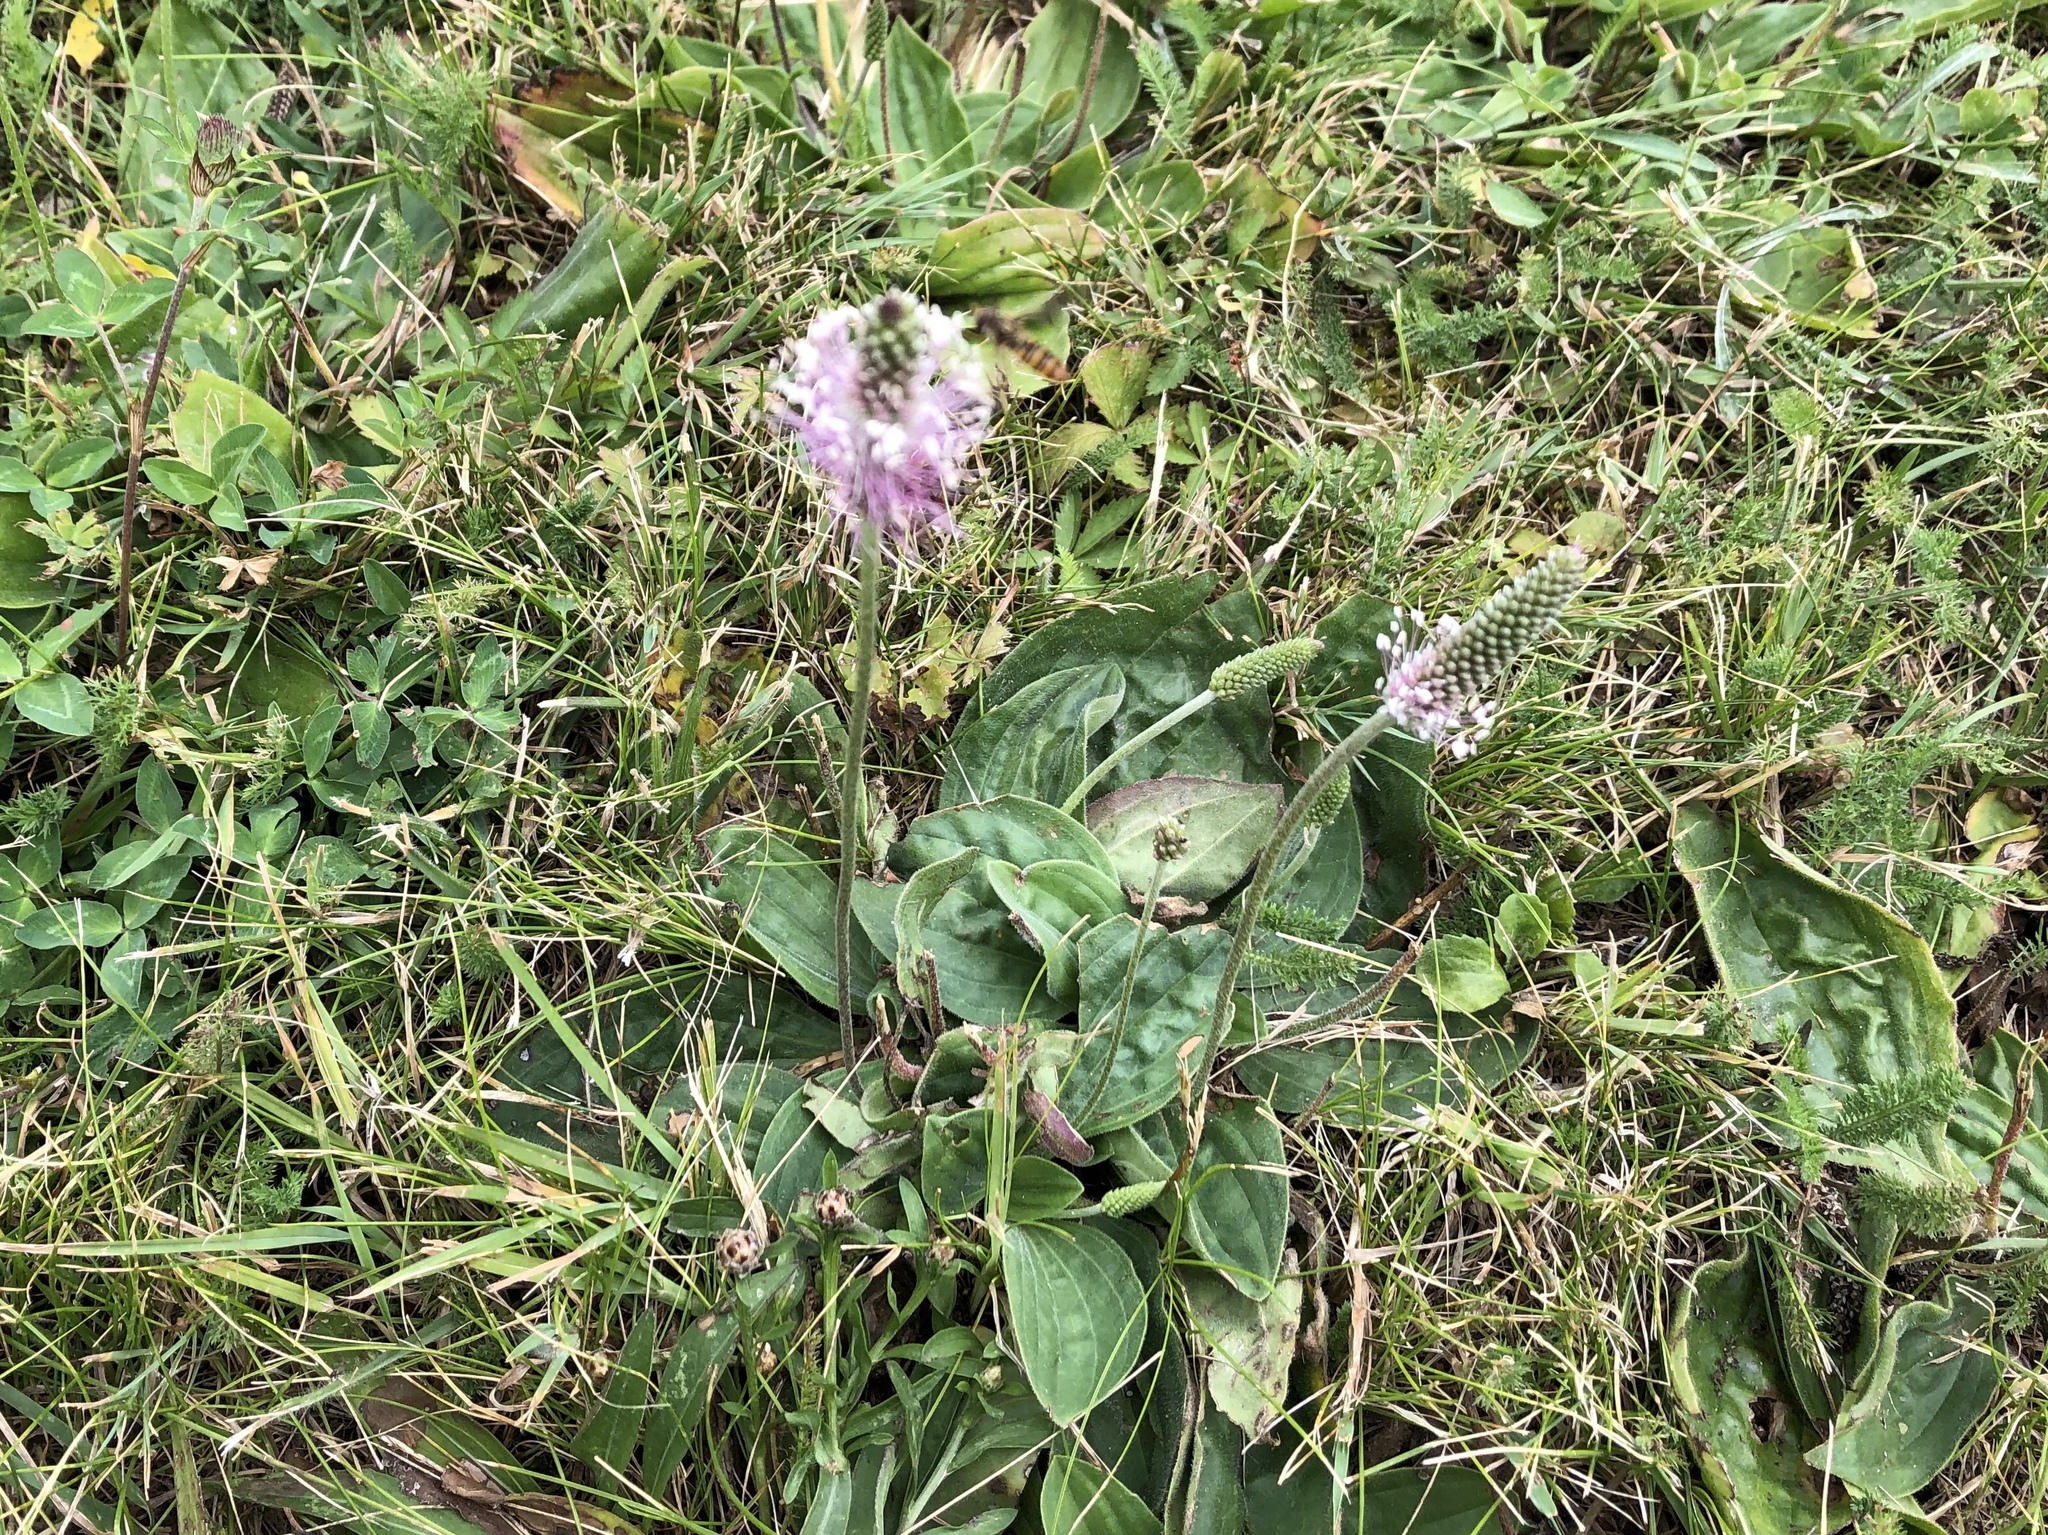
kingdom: Plantae
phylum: Tracheophyta
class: Magnoliopsida
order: Lamiales
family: Plantaginaceae
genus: Plantago
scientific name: Plantago media
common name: Hoary plantain
